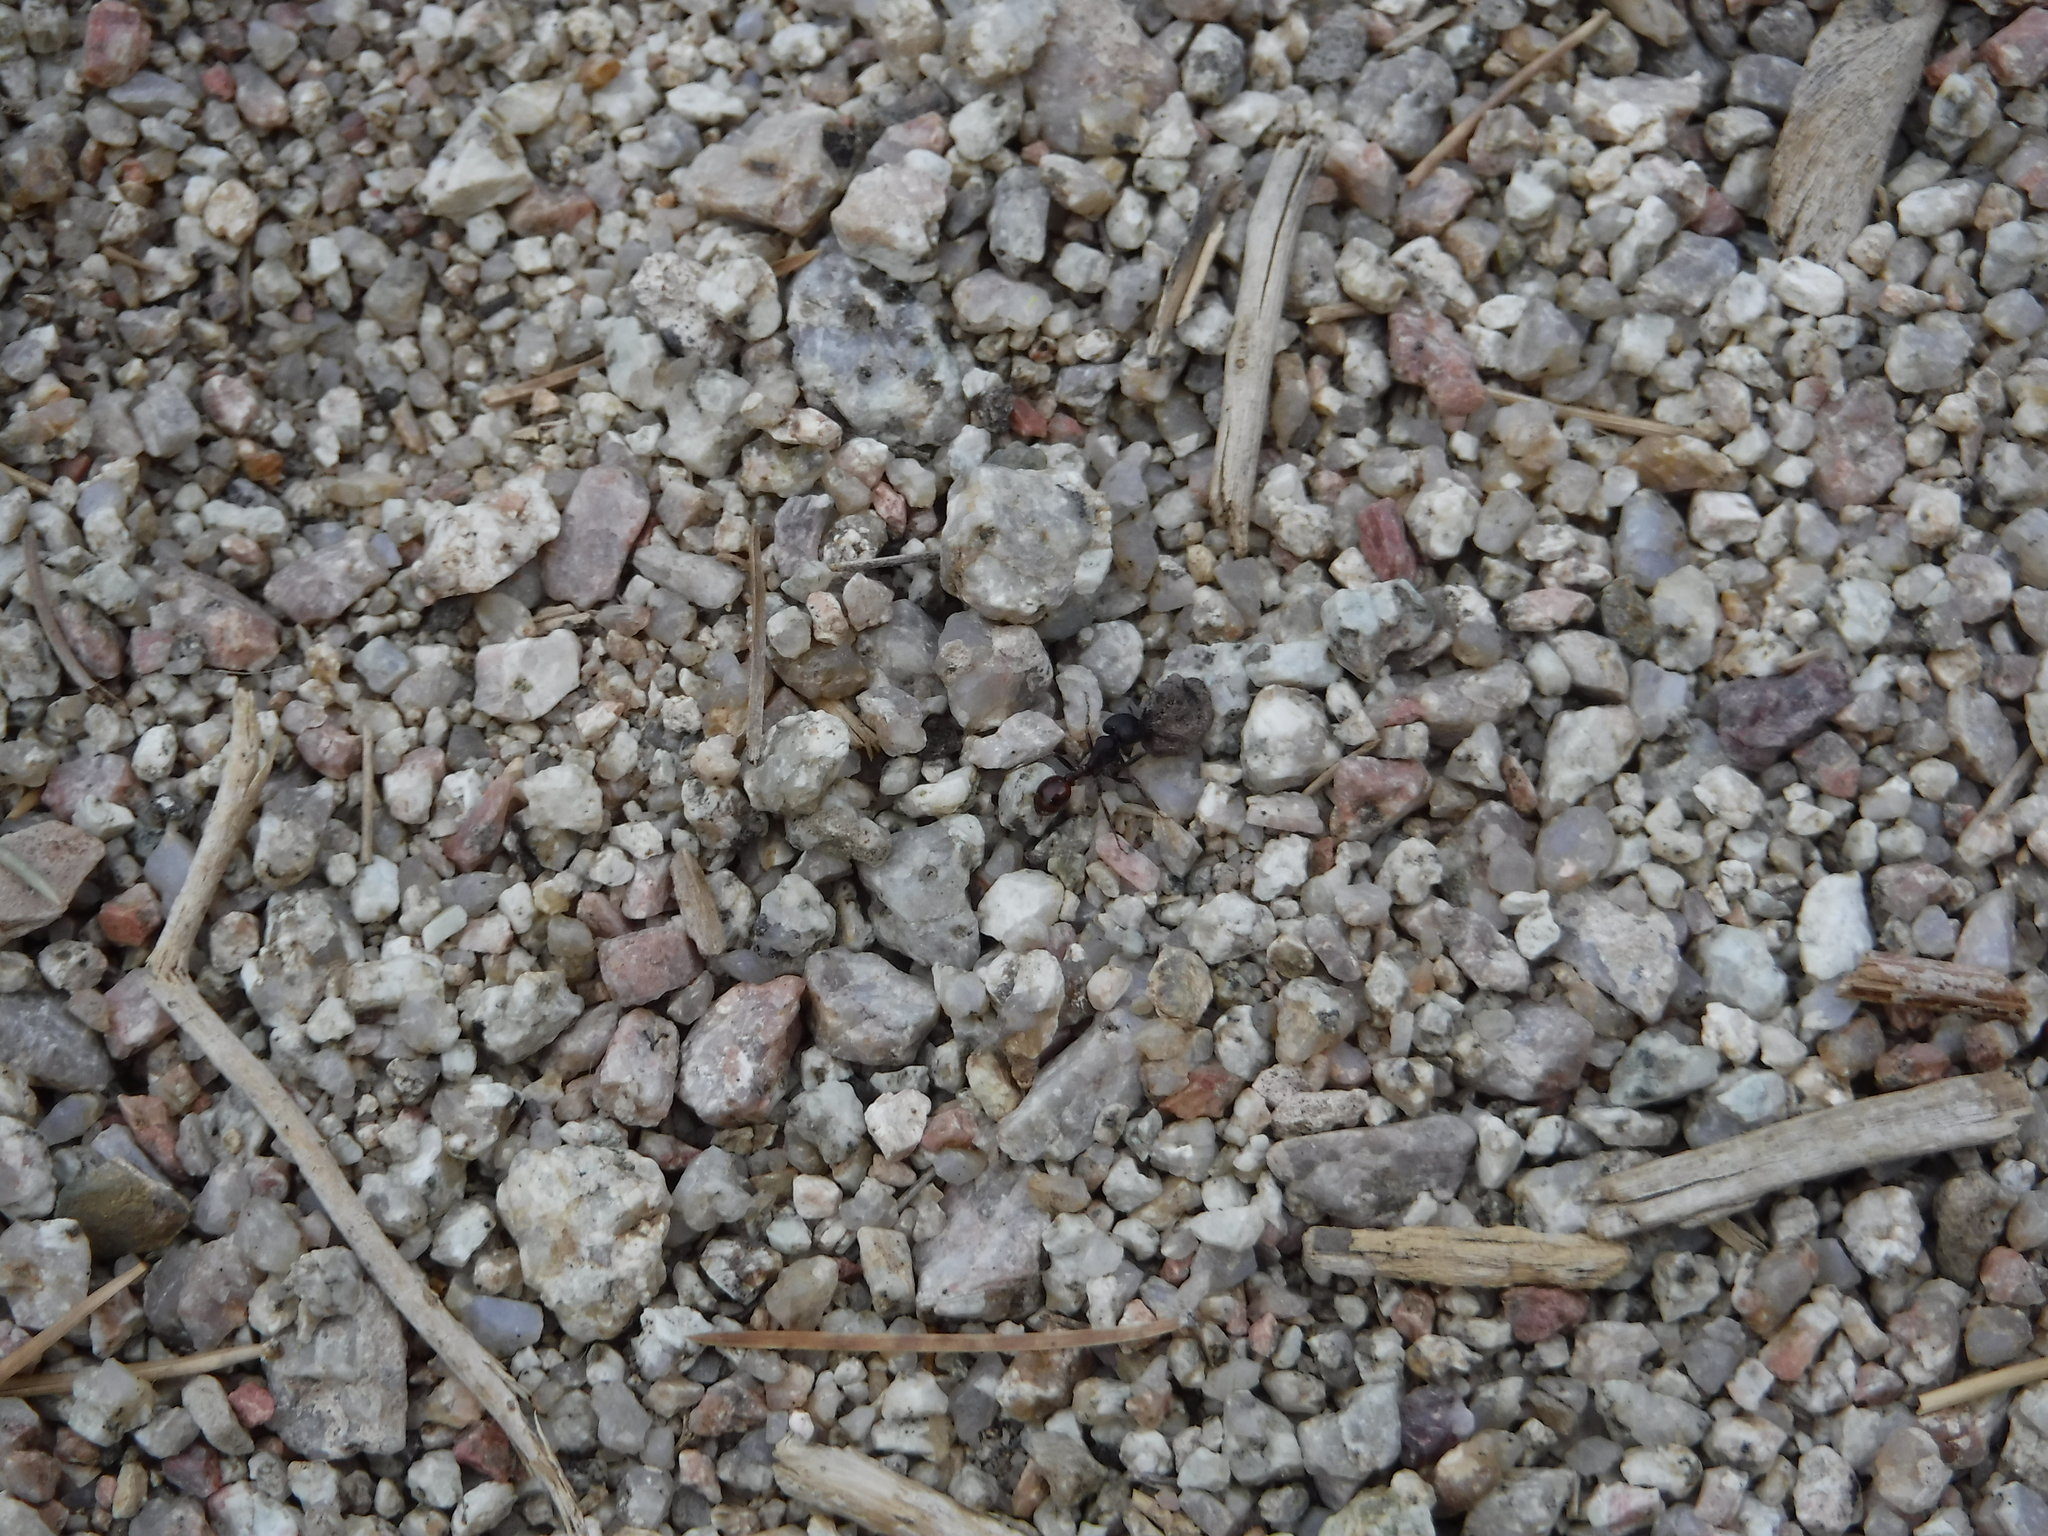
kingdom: Animalia
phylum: Arthropoda
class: Insecta
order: Hymenoptera
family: Formicidae
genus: Pogonomyrmex
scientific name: Pogonomyrmex rugosus
